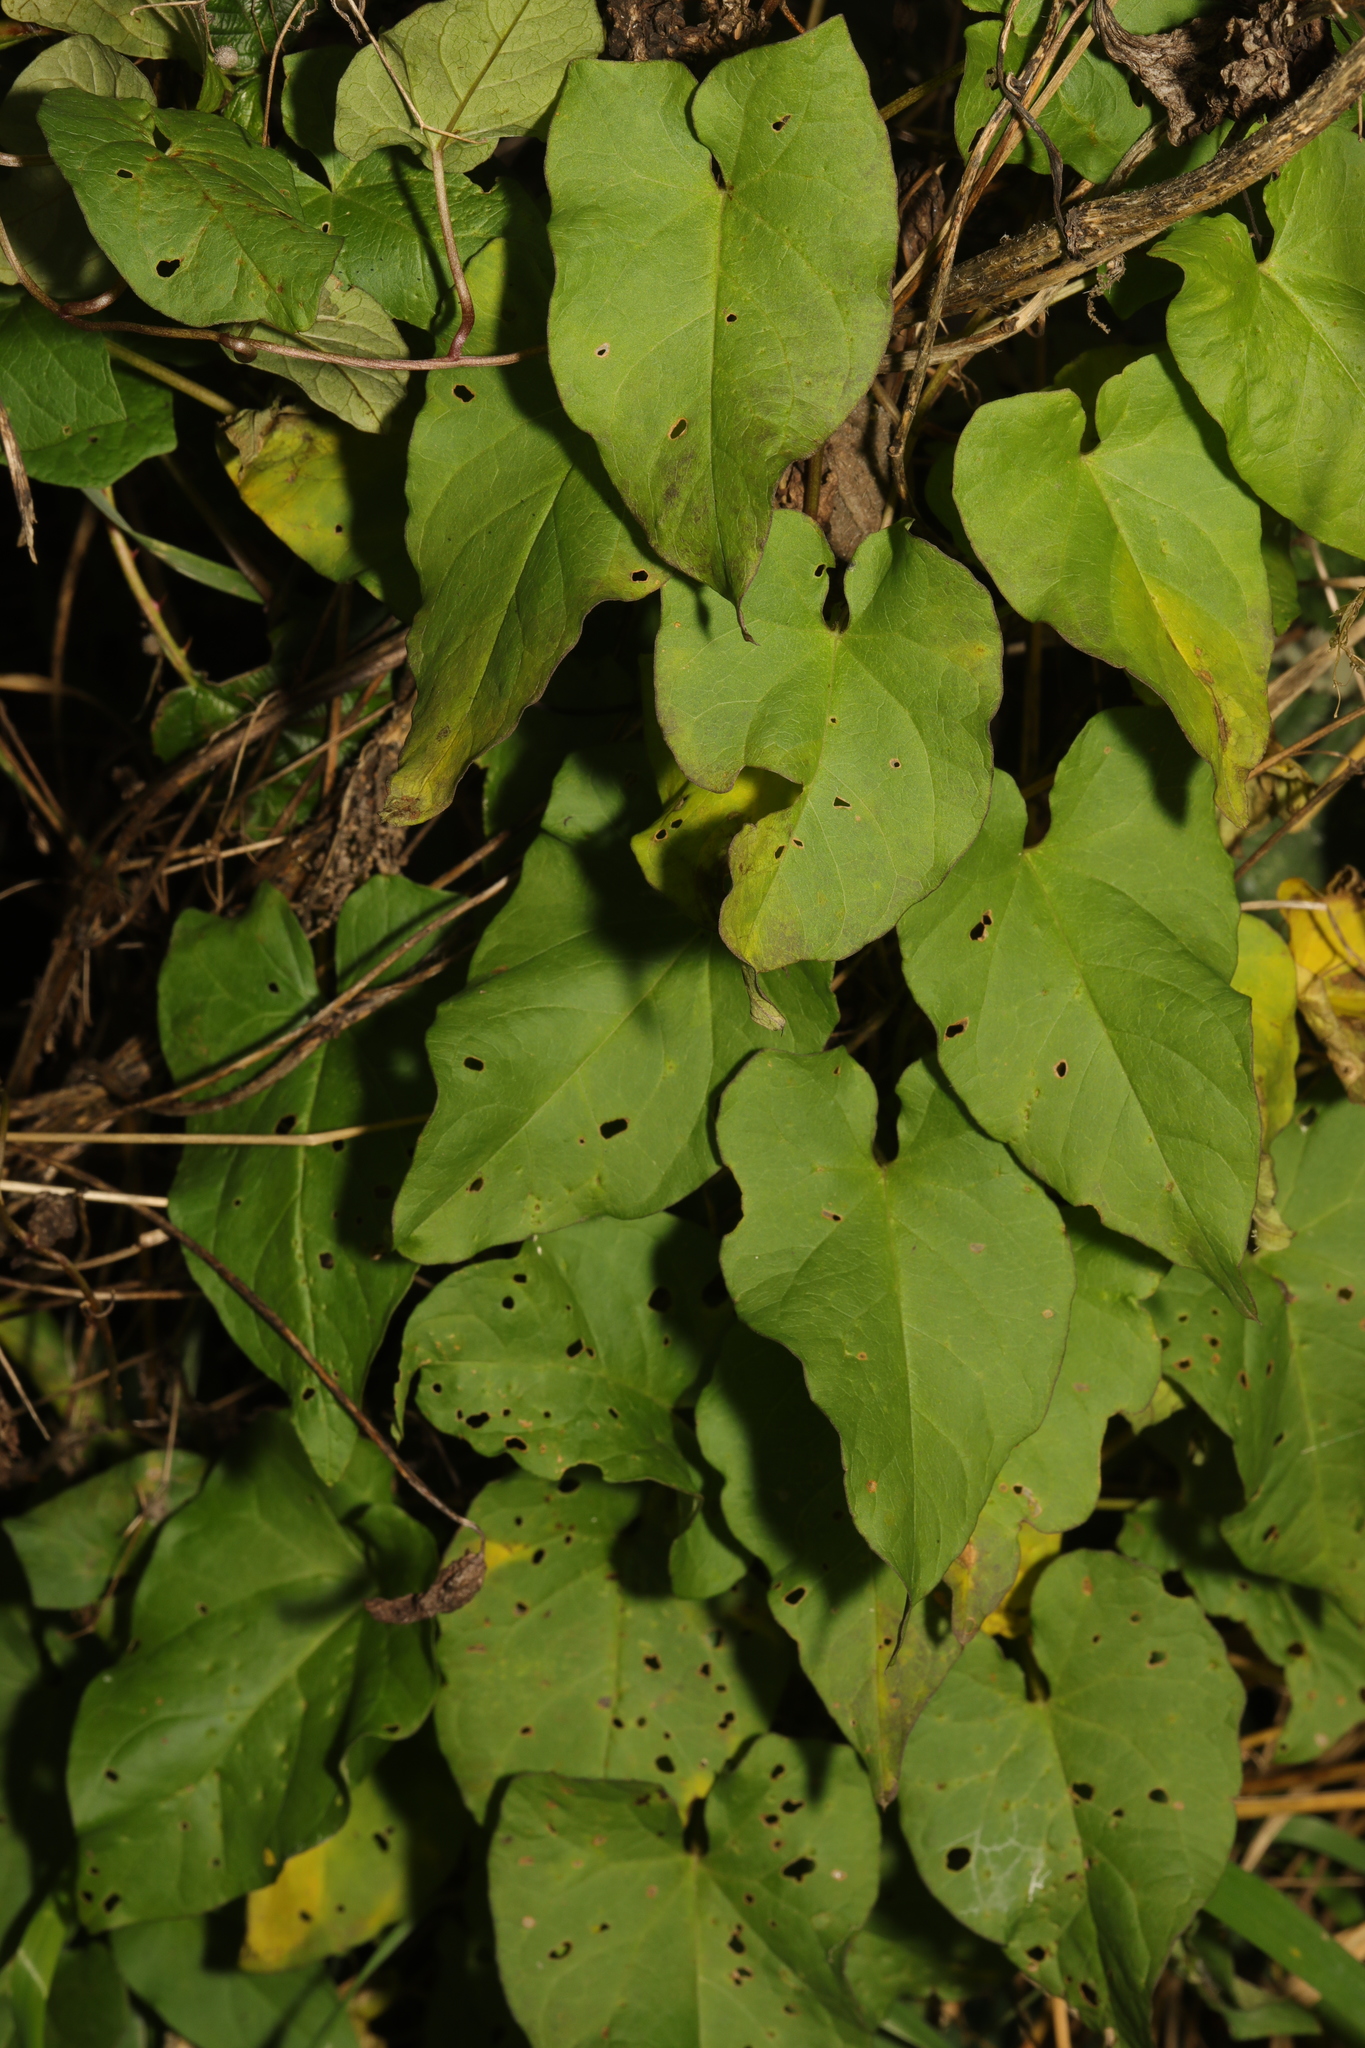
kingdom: Plantae
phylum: Tracheophyta
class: Magnoliopsida
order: Solanales
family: Convolvulaceae
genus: Calystegia
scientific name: Calystegia
